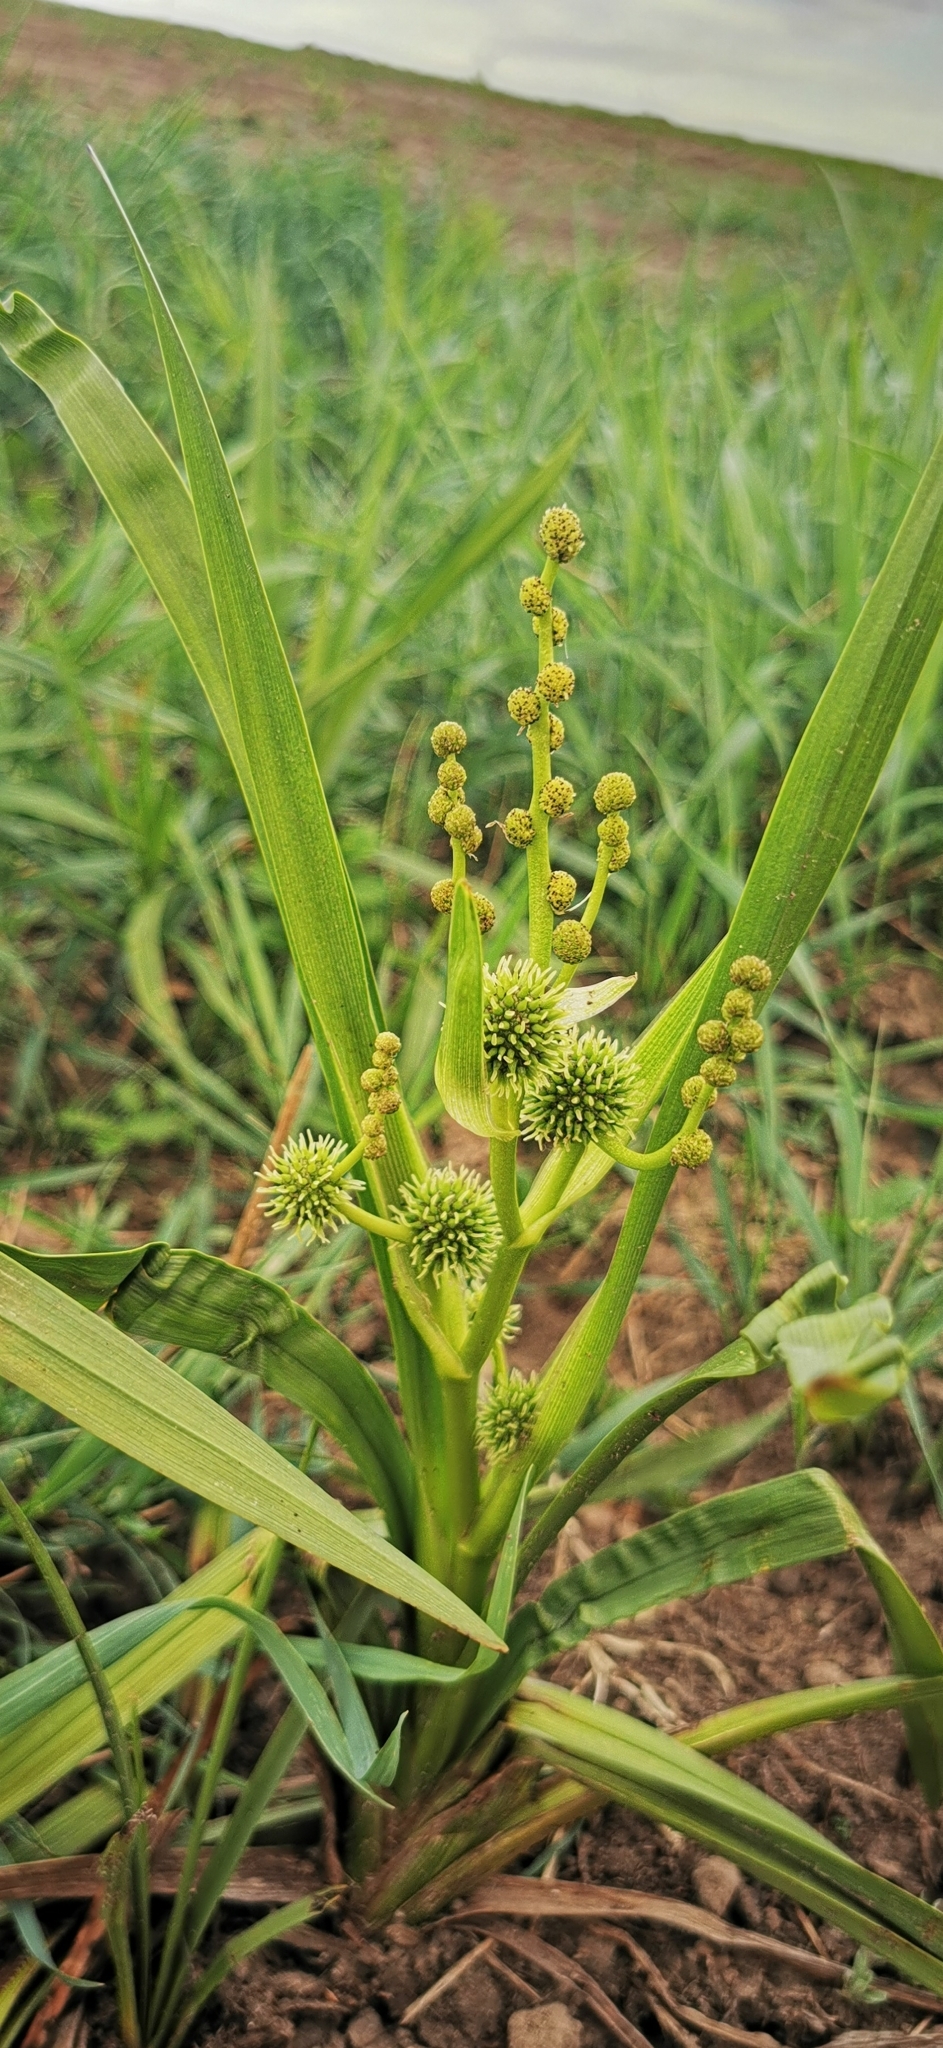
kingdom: Plantae
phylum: Tracheophyta
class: Liliopsida
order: Poales
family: Typhaceae
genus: Sparganium
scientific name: Sparganium erectum
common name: Branched bur-reed
